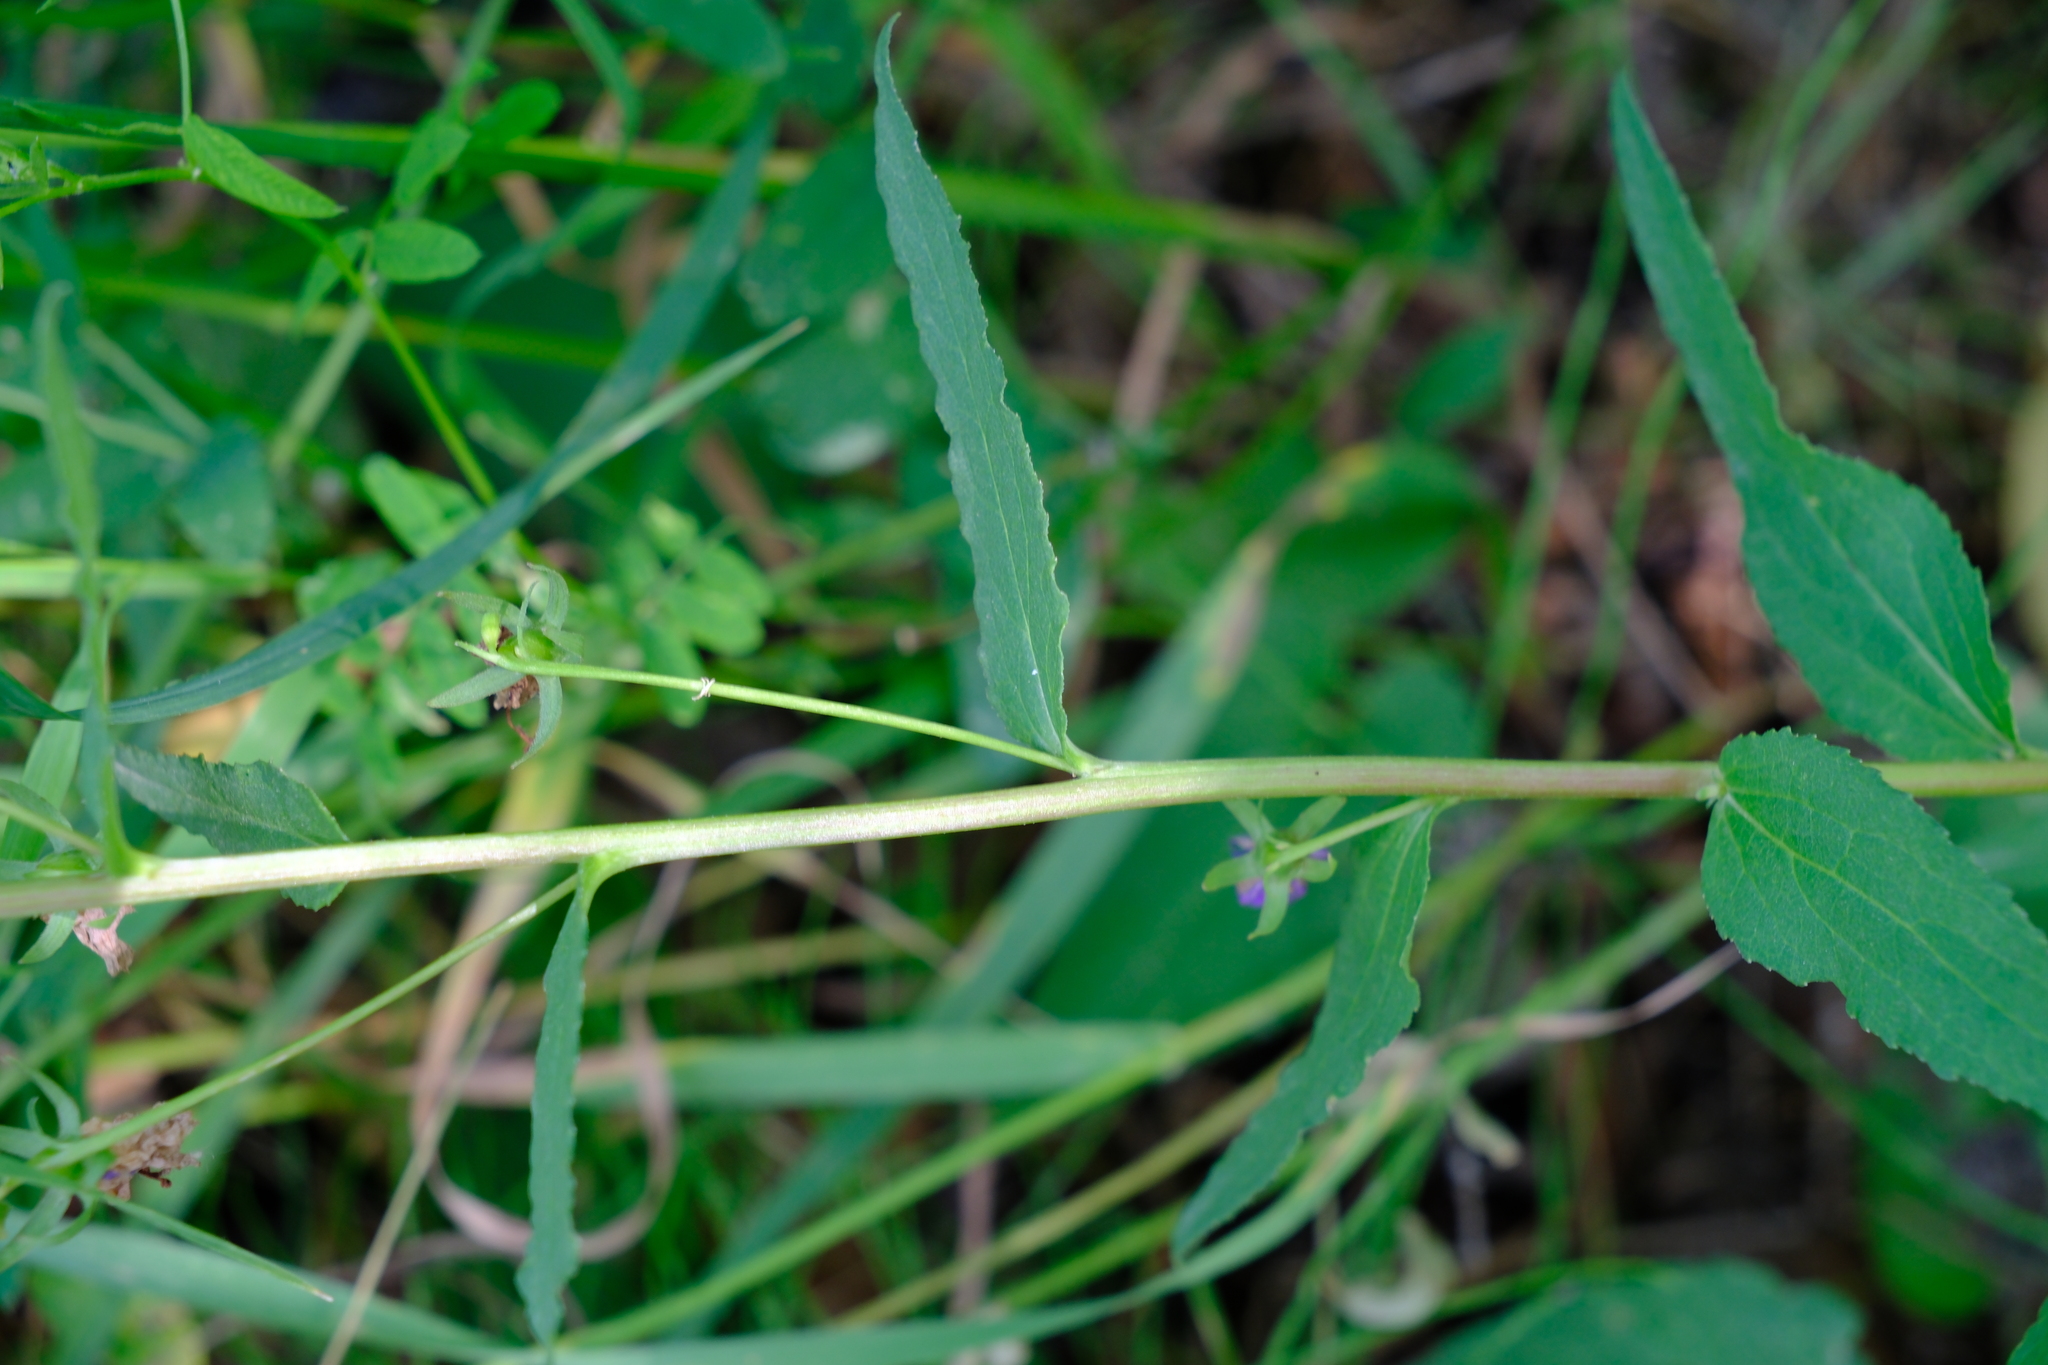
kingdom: Plantae
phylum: Tracheophyta
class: Magnoliopsida
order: Asterales
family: Campanulaceae
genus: Campanula
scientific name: Campanula rapunculoides
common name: Creeping bellflower
